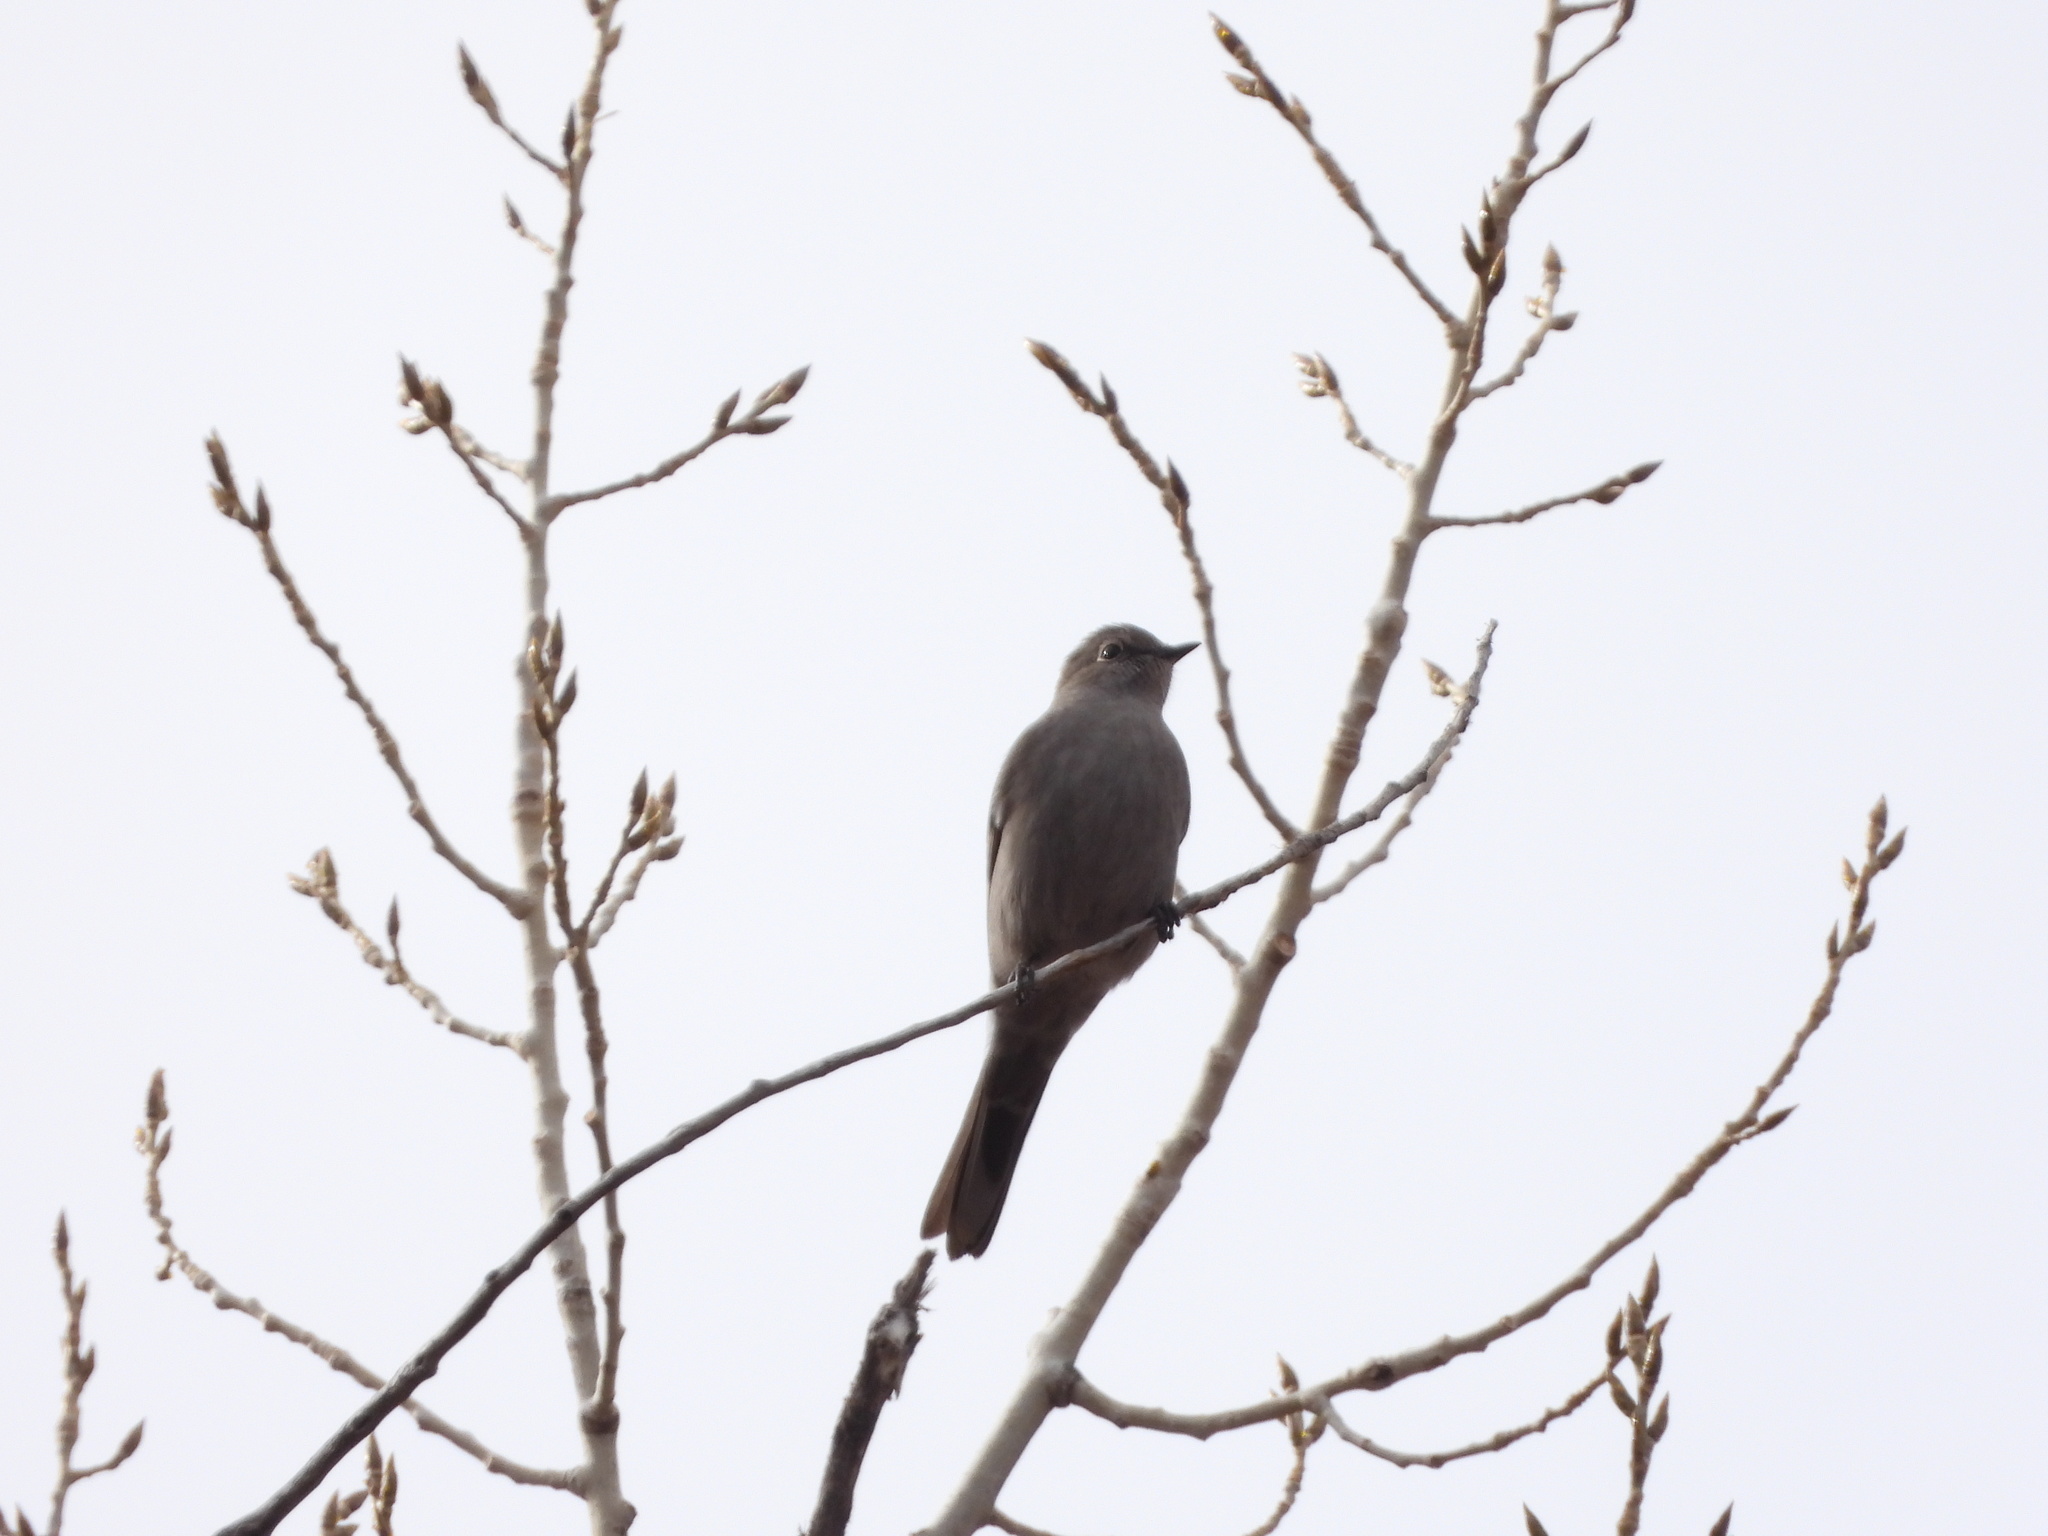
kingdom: Animalia
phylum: Chordata
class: Aves
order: Passeriformes
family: Turdidae
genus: Myadestes
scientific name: Myadestes townsendi
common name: Townsend's solitaire
